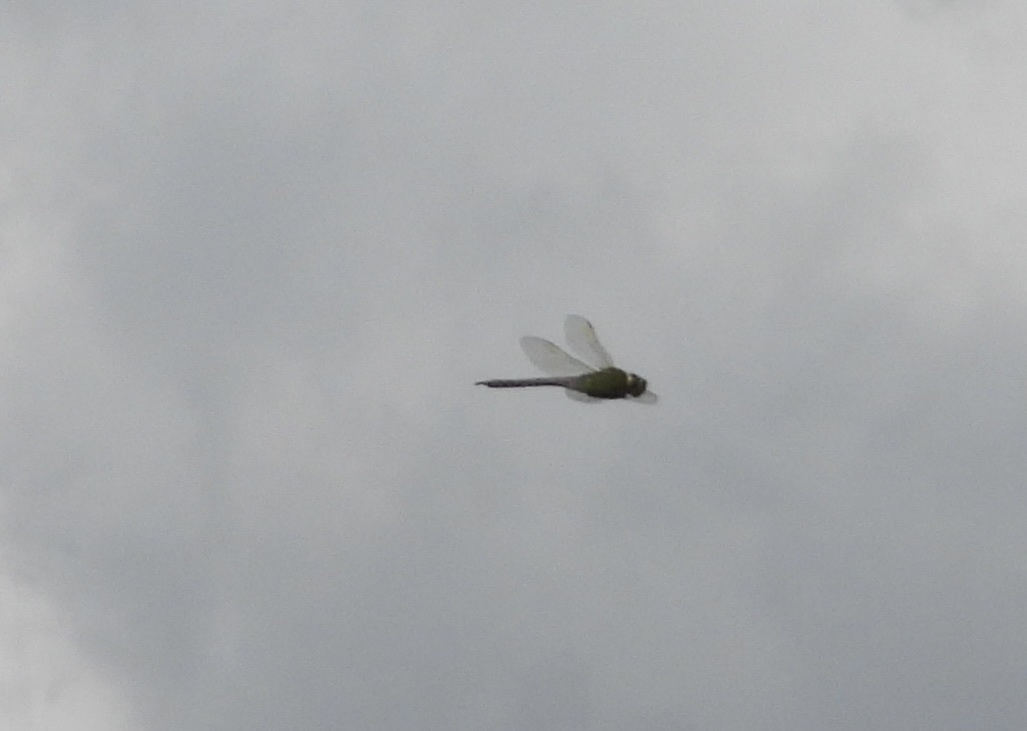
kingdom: Animalia
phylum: Arthropoda
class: Insecta
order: Odonata
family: Aeshnidae
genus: Anax
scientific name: Anax junius
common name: Common green darner
